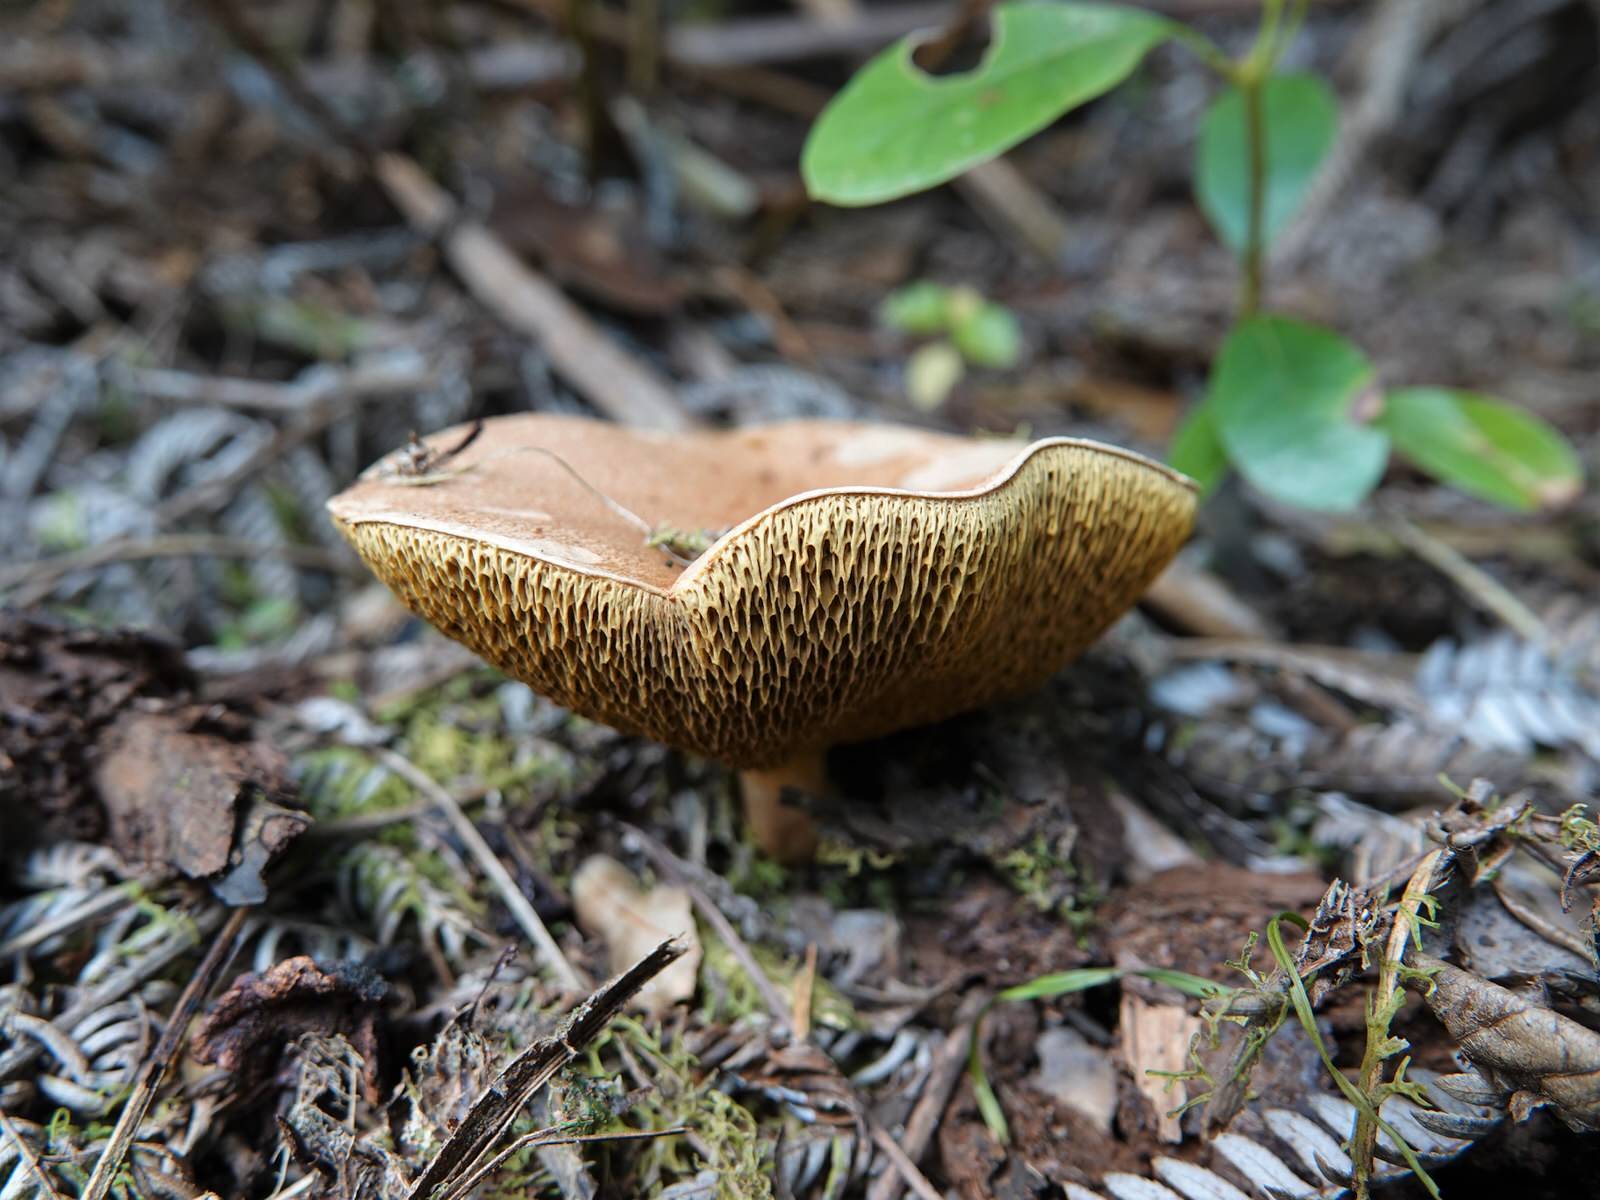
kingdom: Fungi
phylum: Basidiomycota
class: Agaricomycetes
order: Boletales
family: Suillaceae
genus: Suillus
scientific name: Suillus bovinus
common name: Bovine bolete
